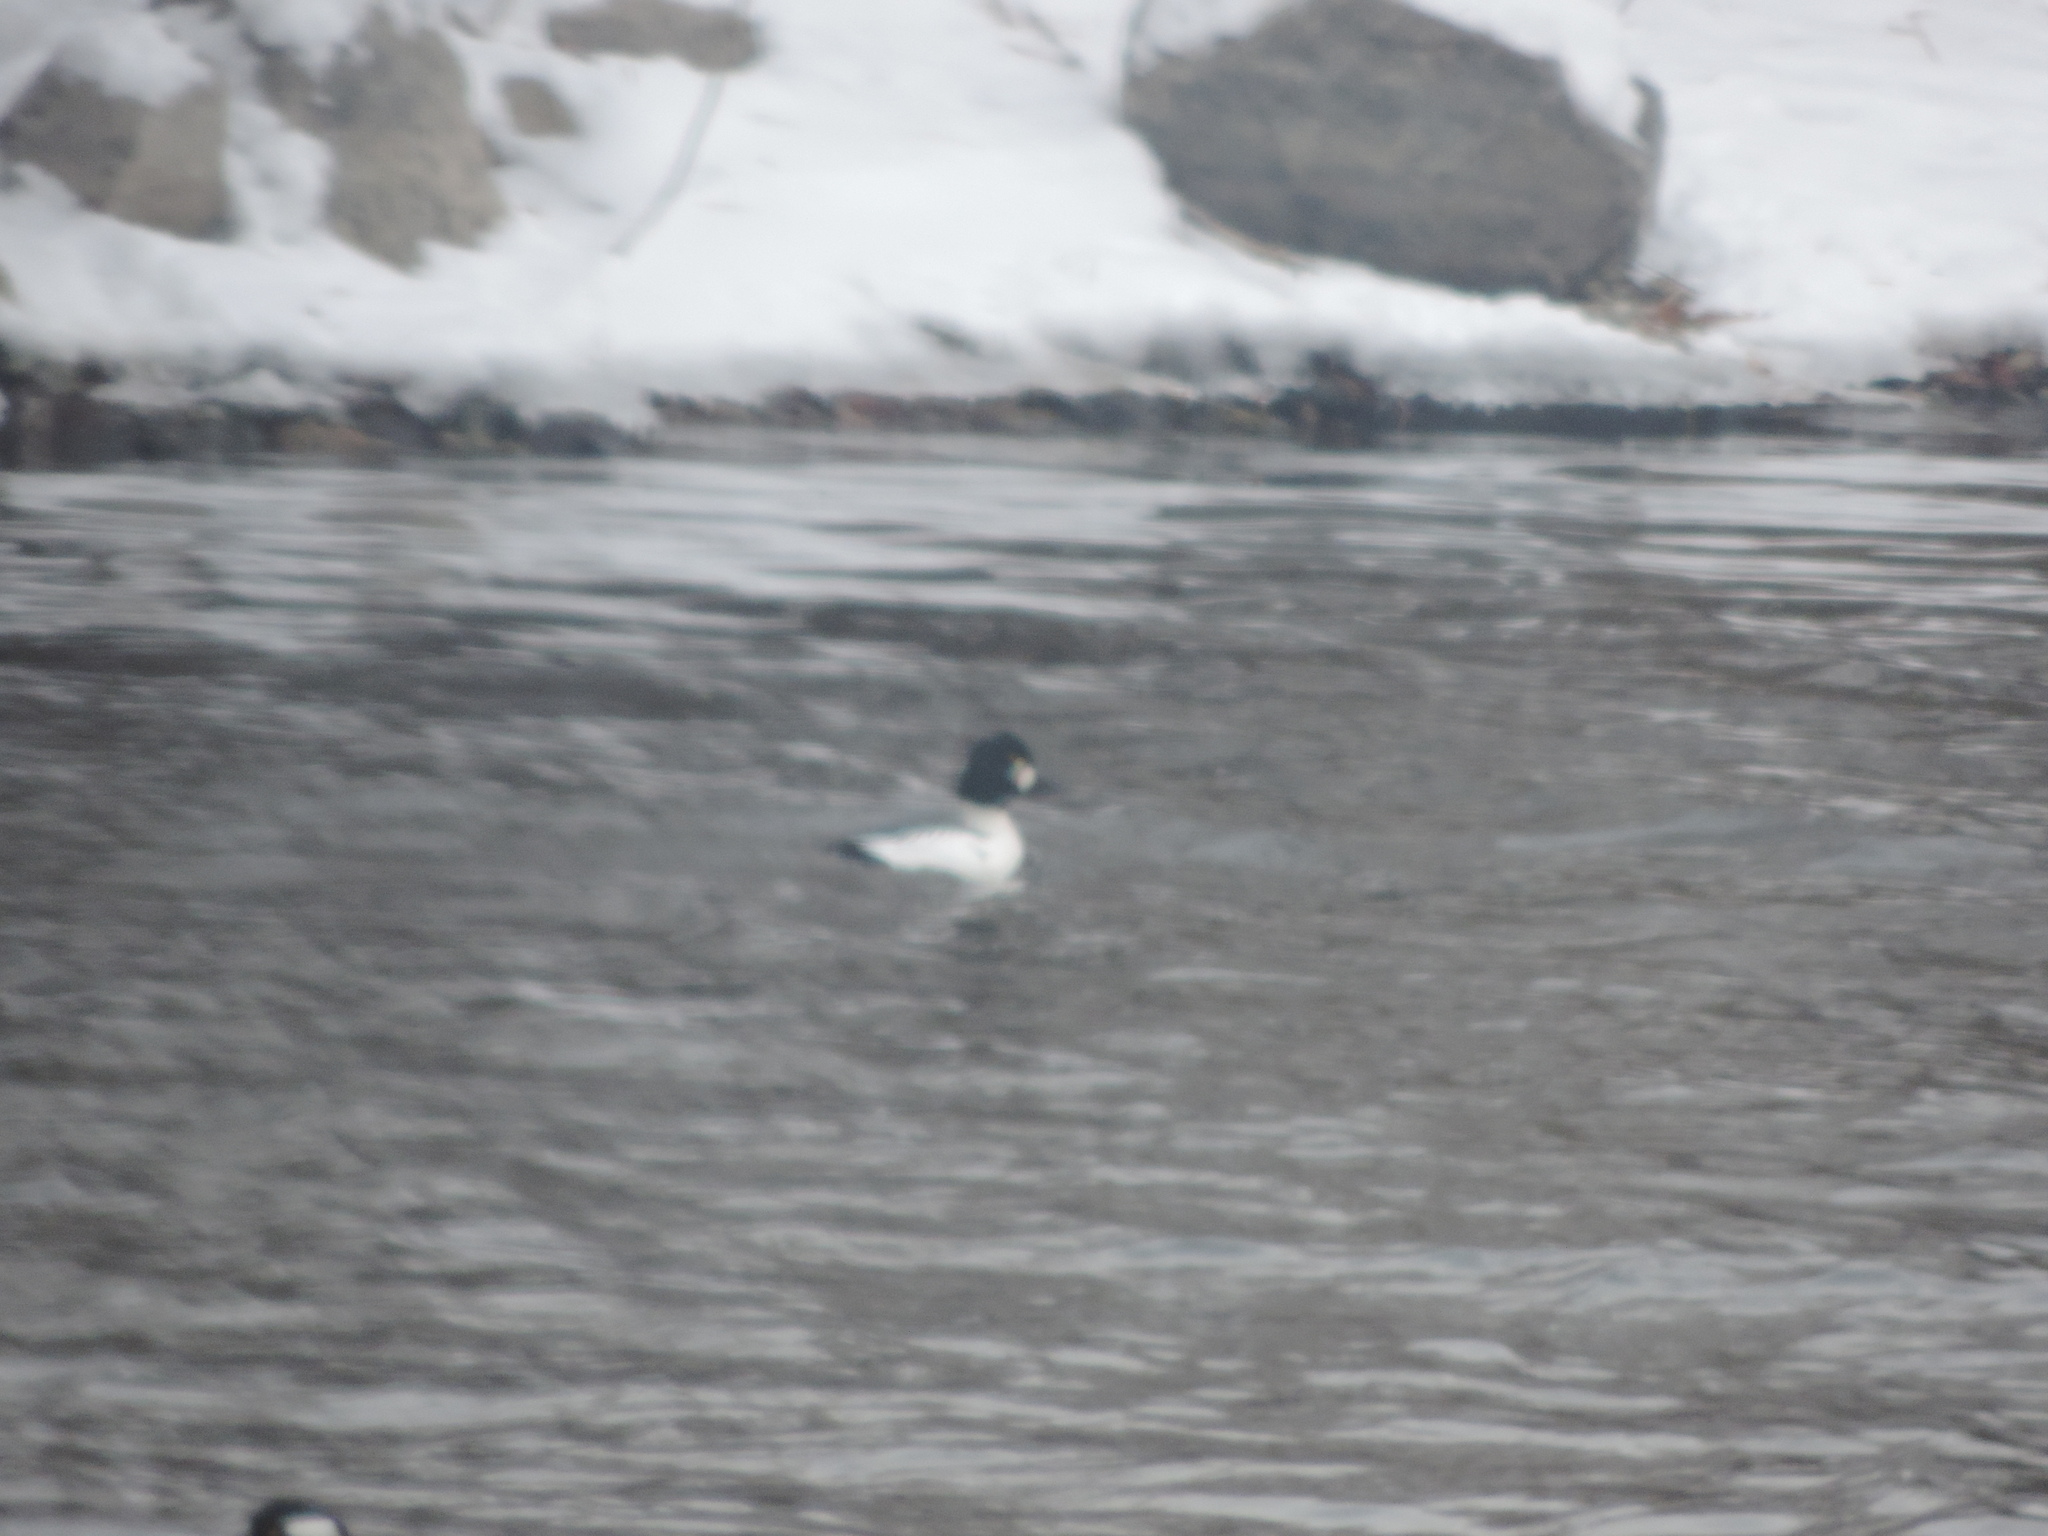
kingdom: Animalia
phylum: Chordata
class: Aves
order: Anseriformes
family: Anatidae
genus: Bucephala
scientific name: Bucephala clangula
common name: Common goldeneye
